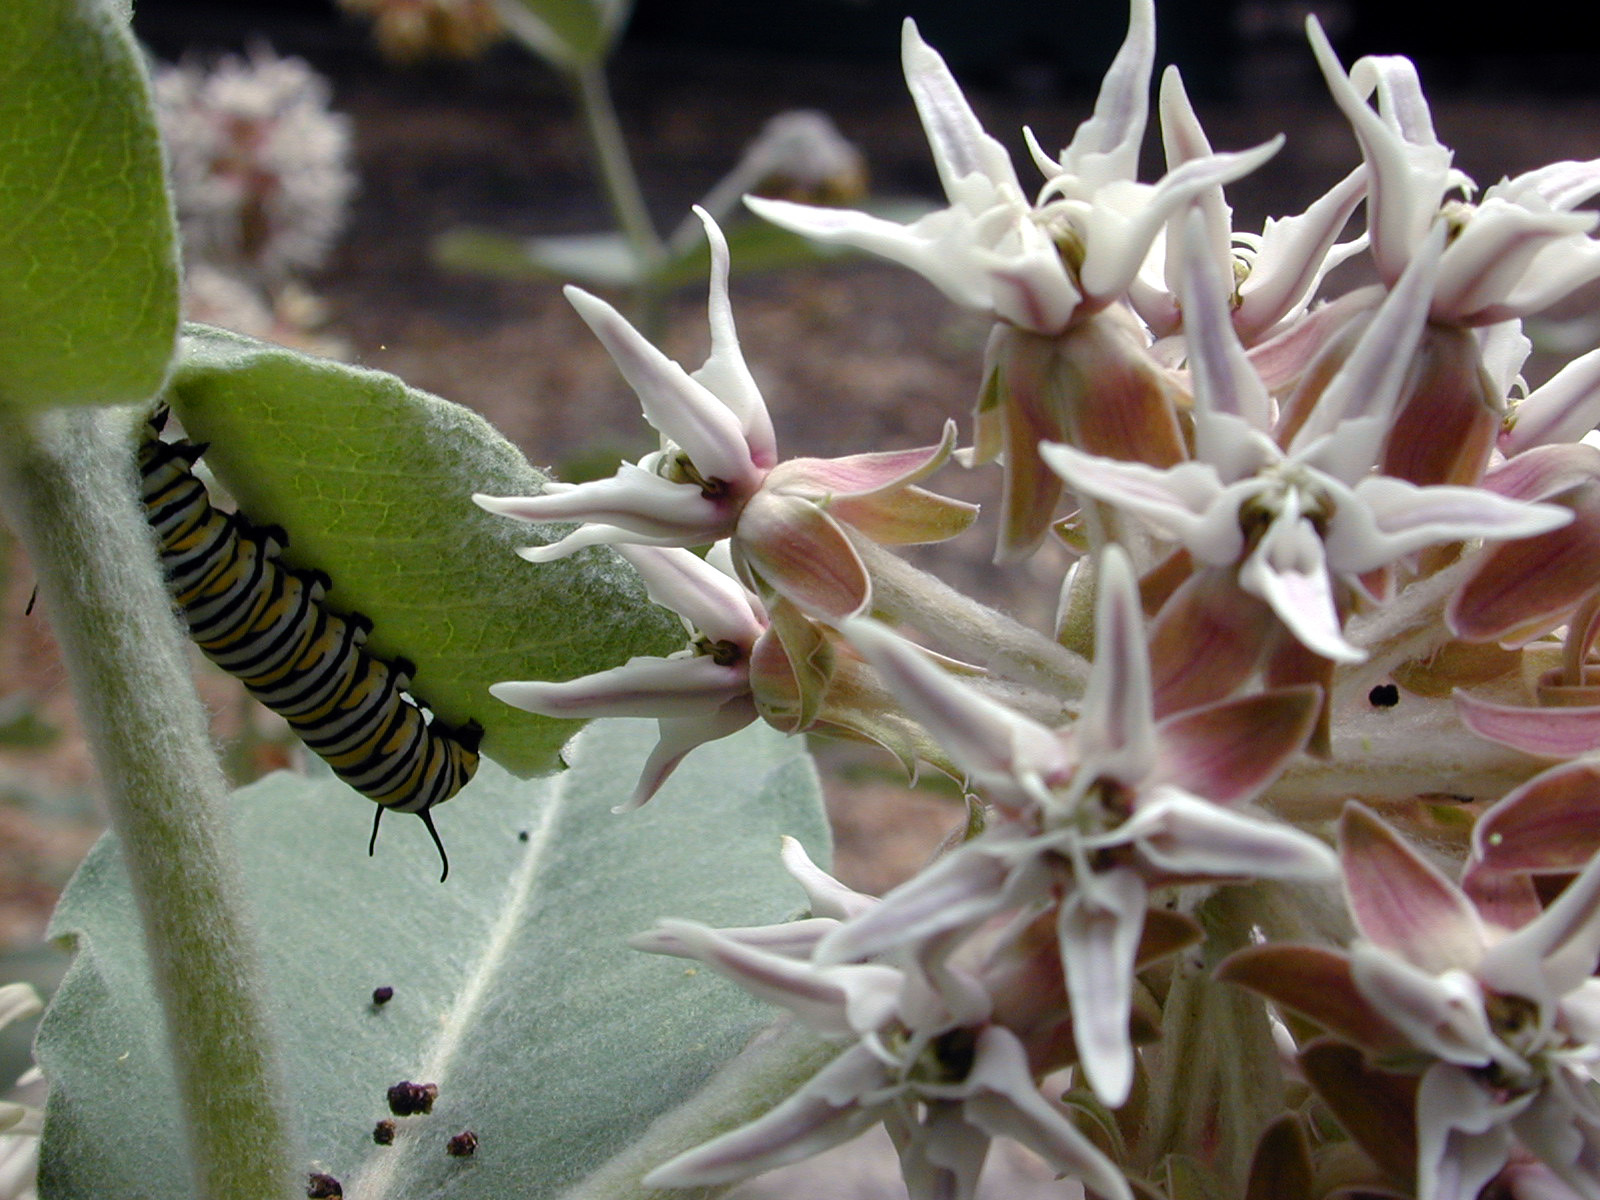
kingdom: Plantae
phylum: Tracheophyta
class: Magnoliopsida
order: Gentianales
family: Apocynaceae
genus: Asclepias
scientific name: Asclepias speciosa
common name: Showy milkweed
